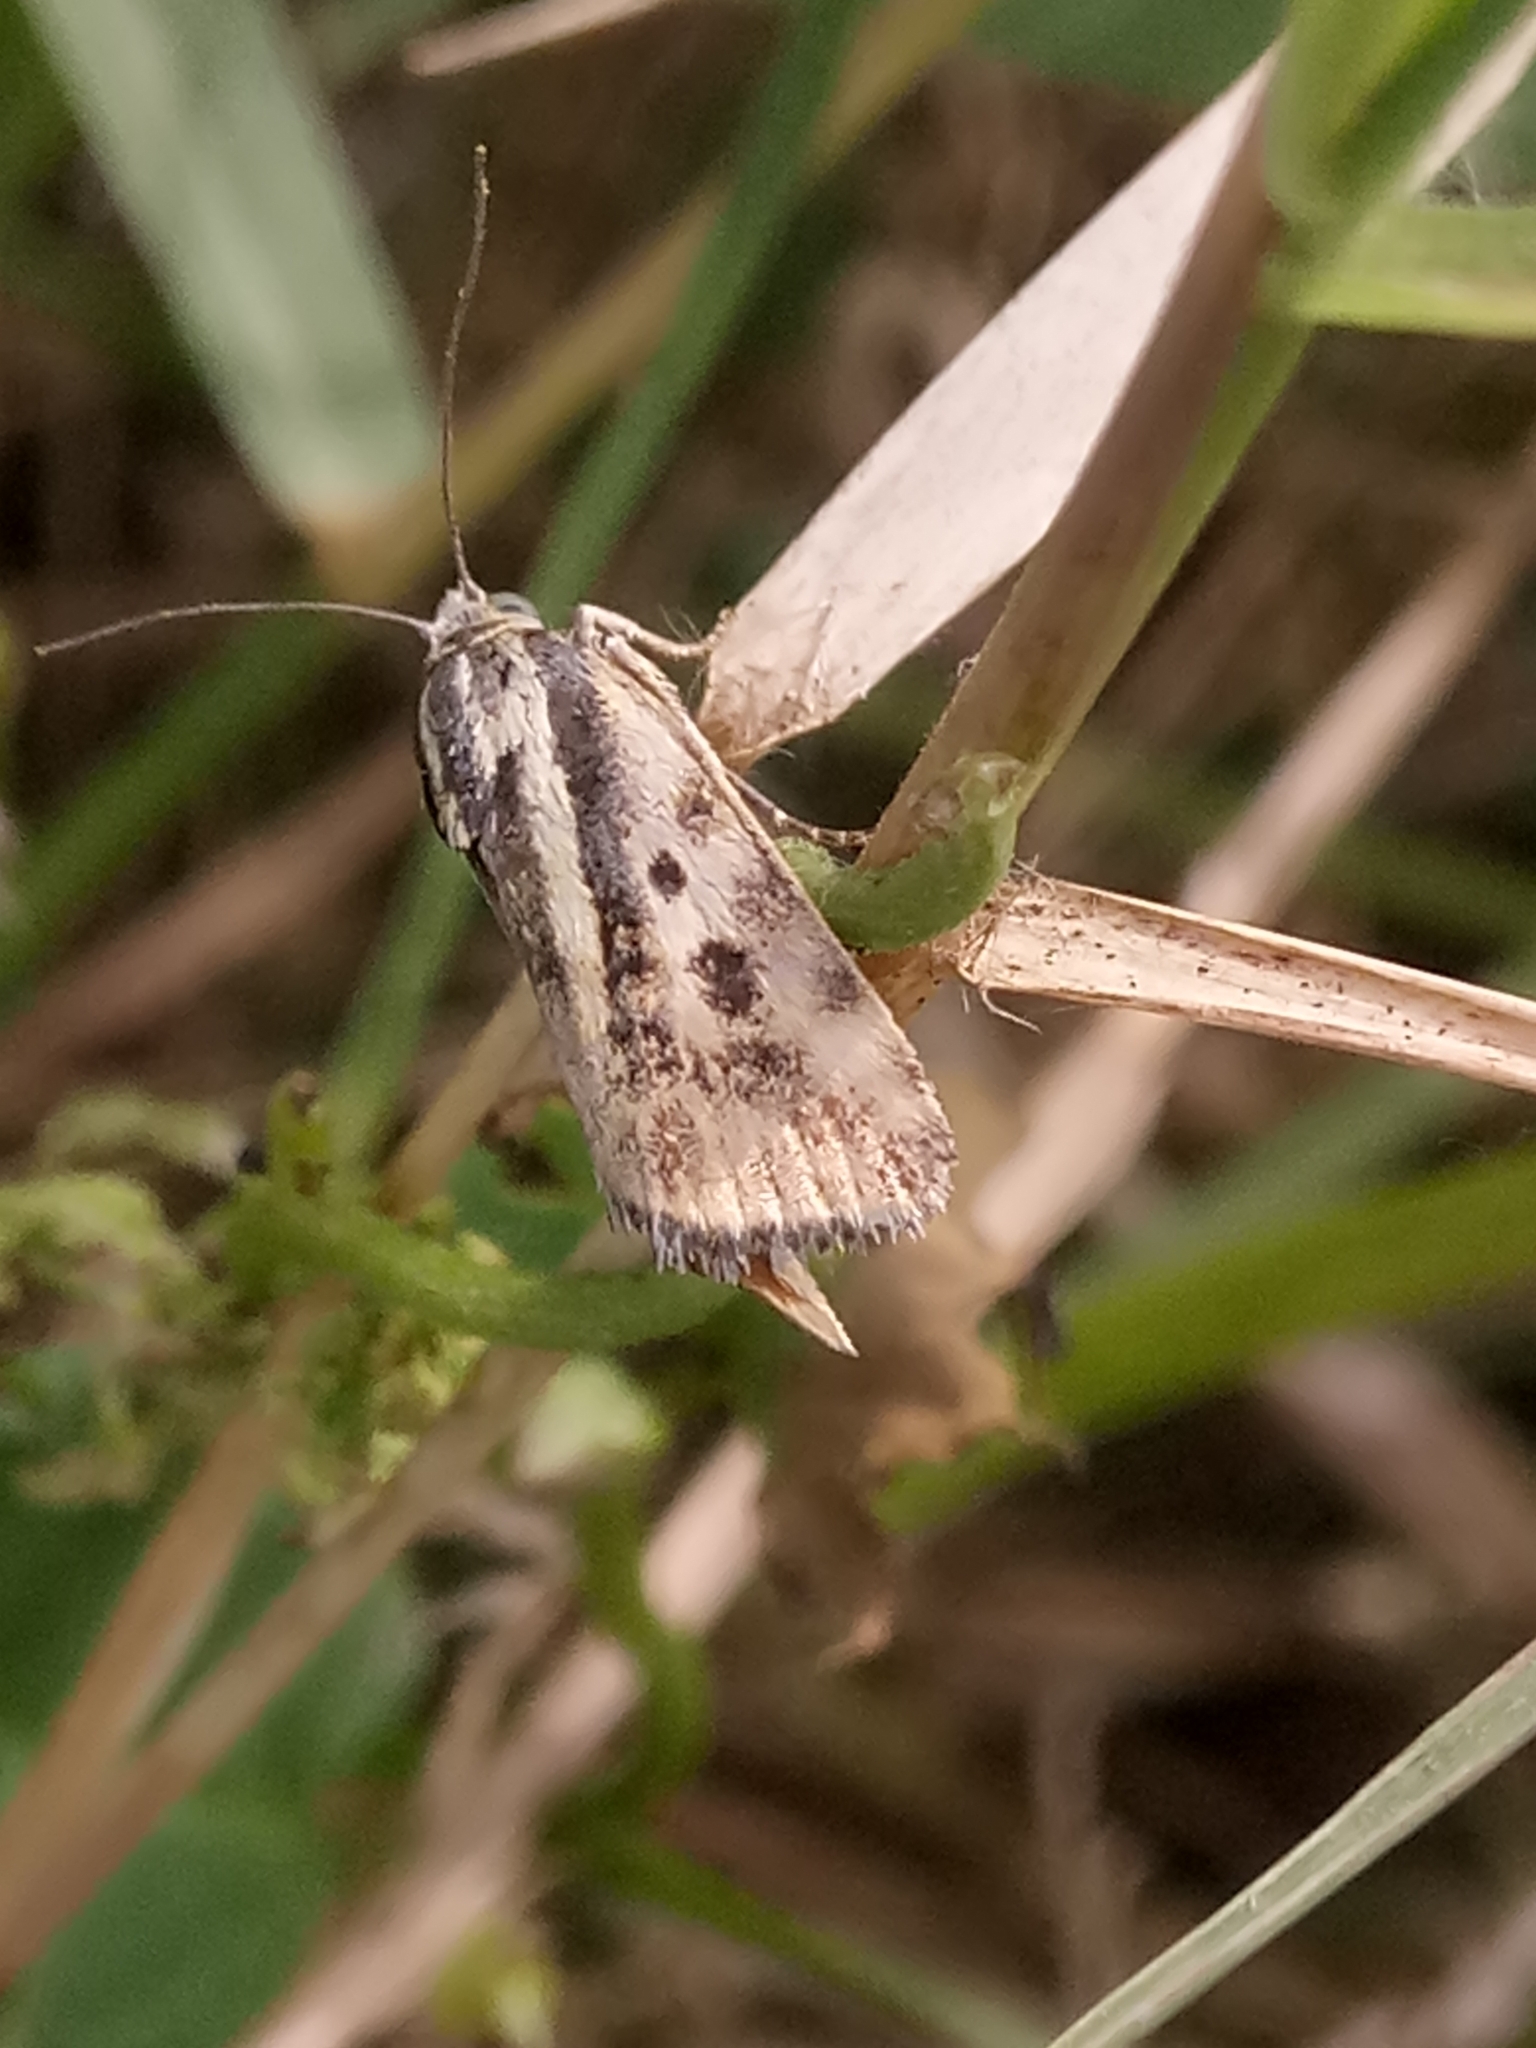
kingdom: Animalia
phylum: Arthropoda
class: Insecta
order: Lepidoptera
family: Noctuidae
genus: Acontia
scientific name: Acontia trabealis
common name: Spotted sulphur
